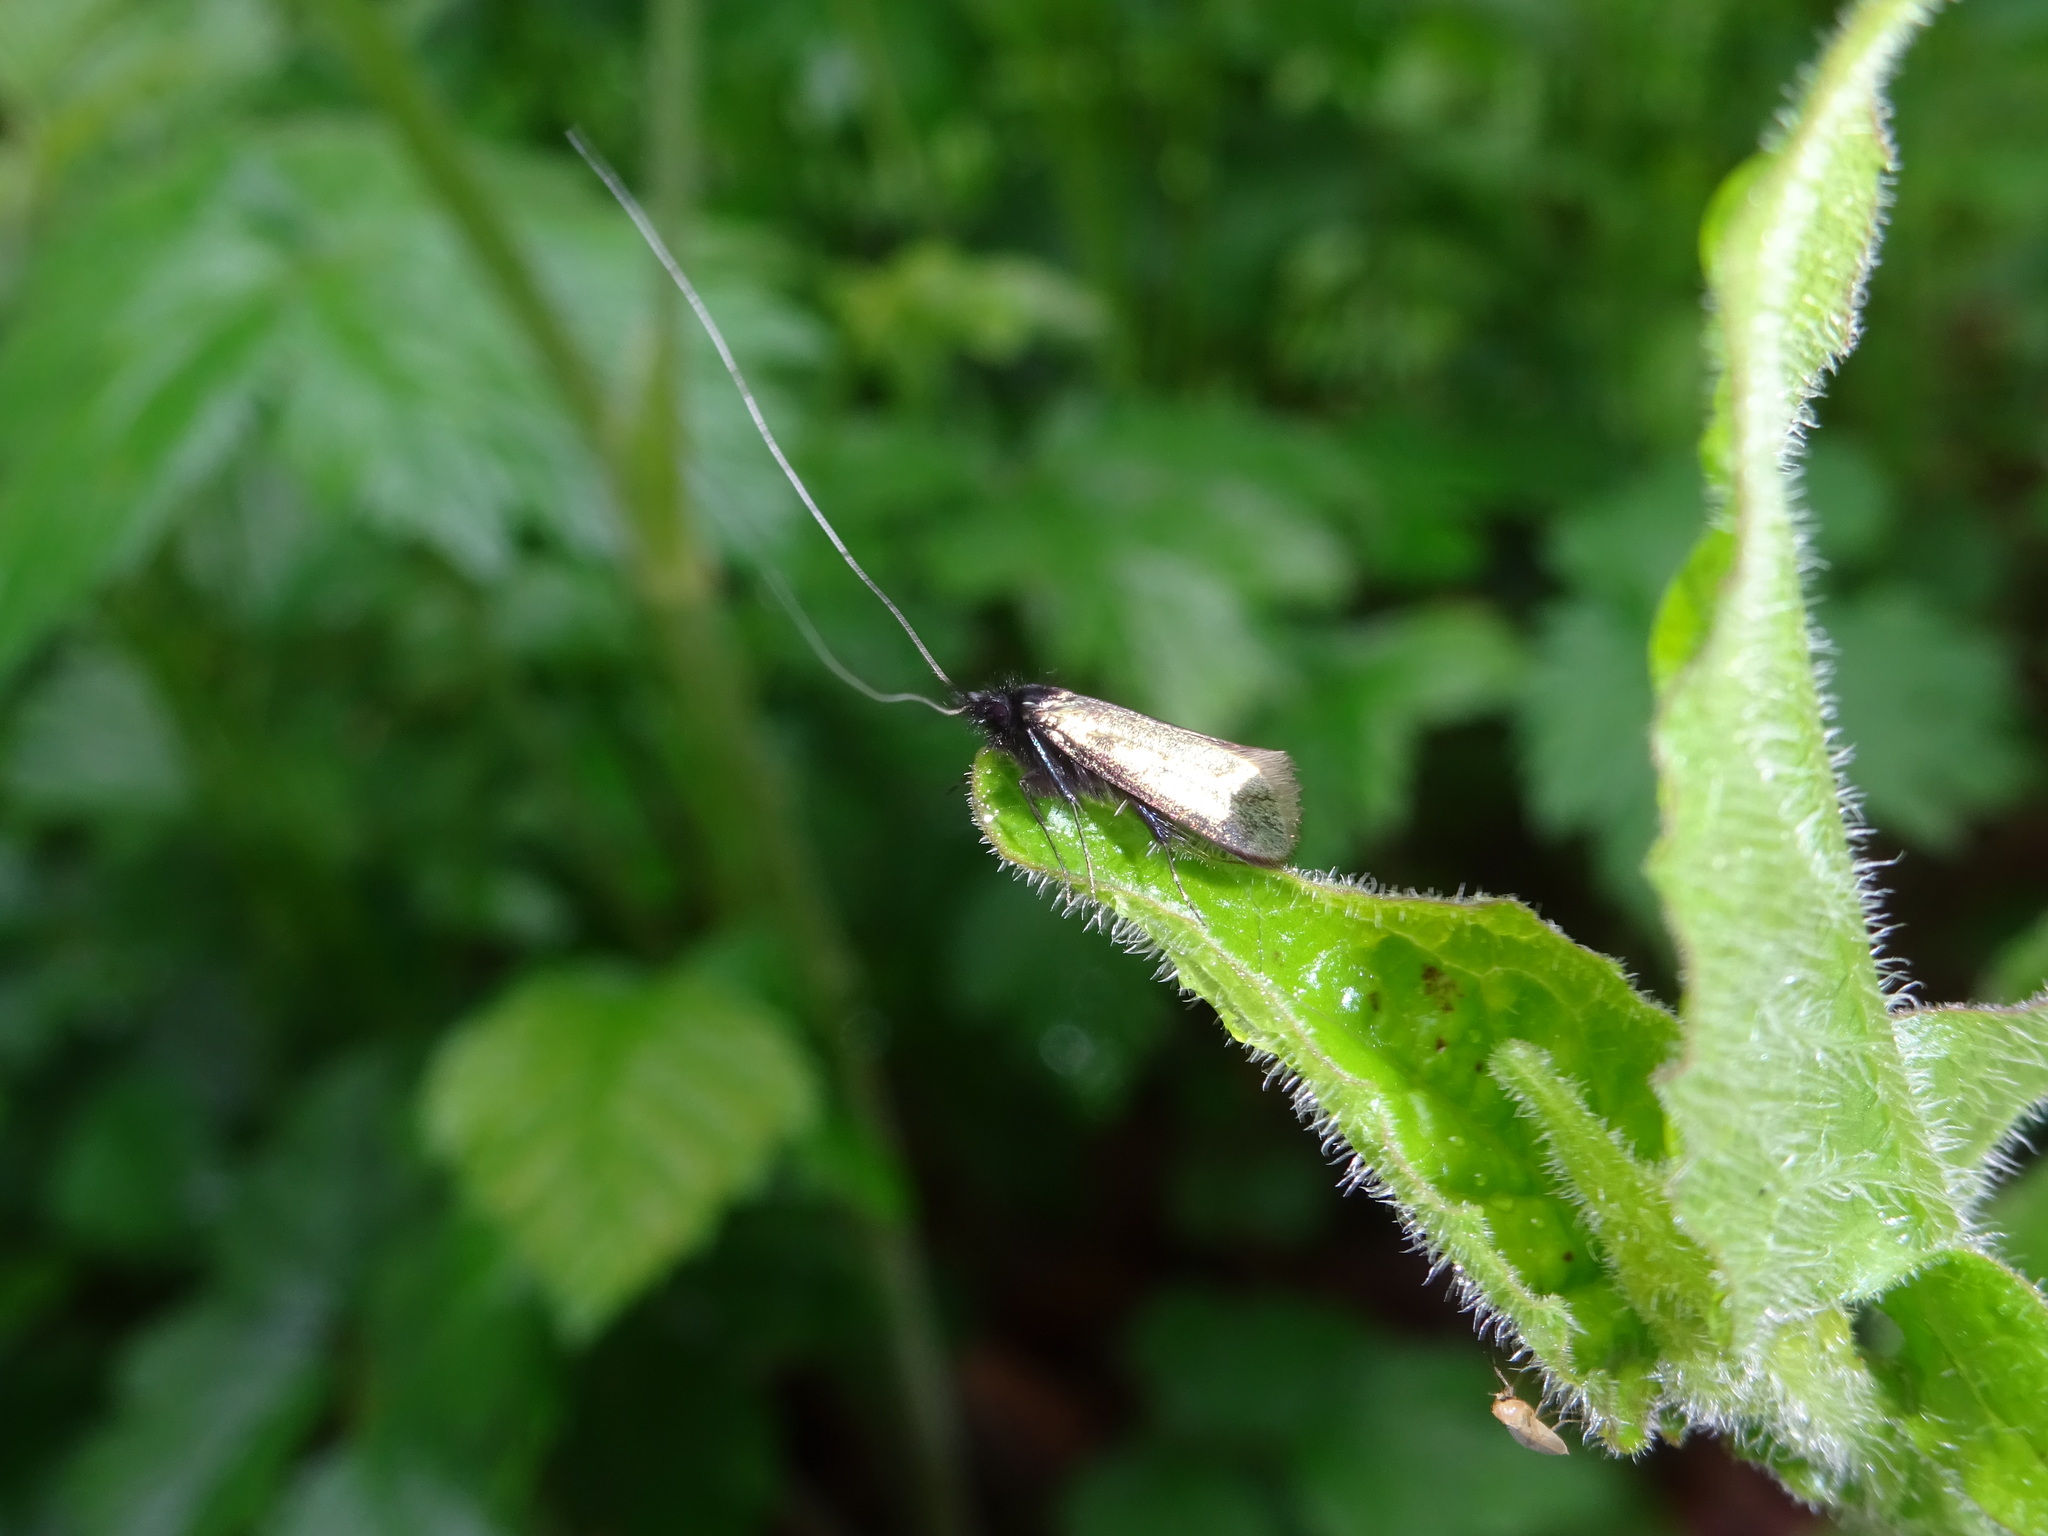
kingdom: Animalia
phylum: Arthropoda
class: Insecta
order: Lepidoptera
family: Adelidae
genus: Adela
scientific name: Adela viridella
